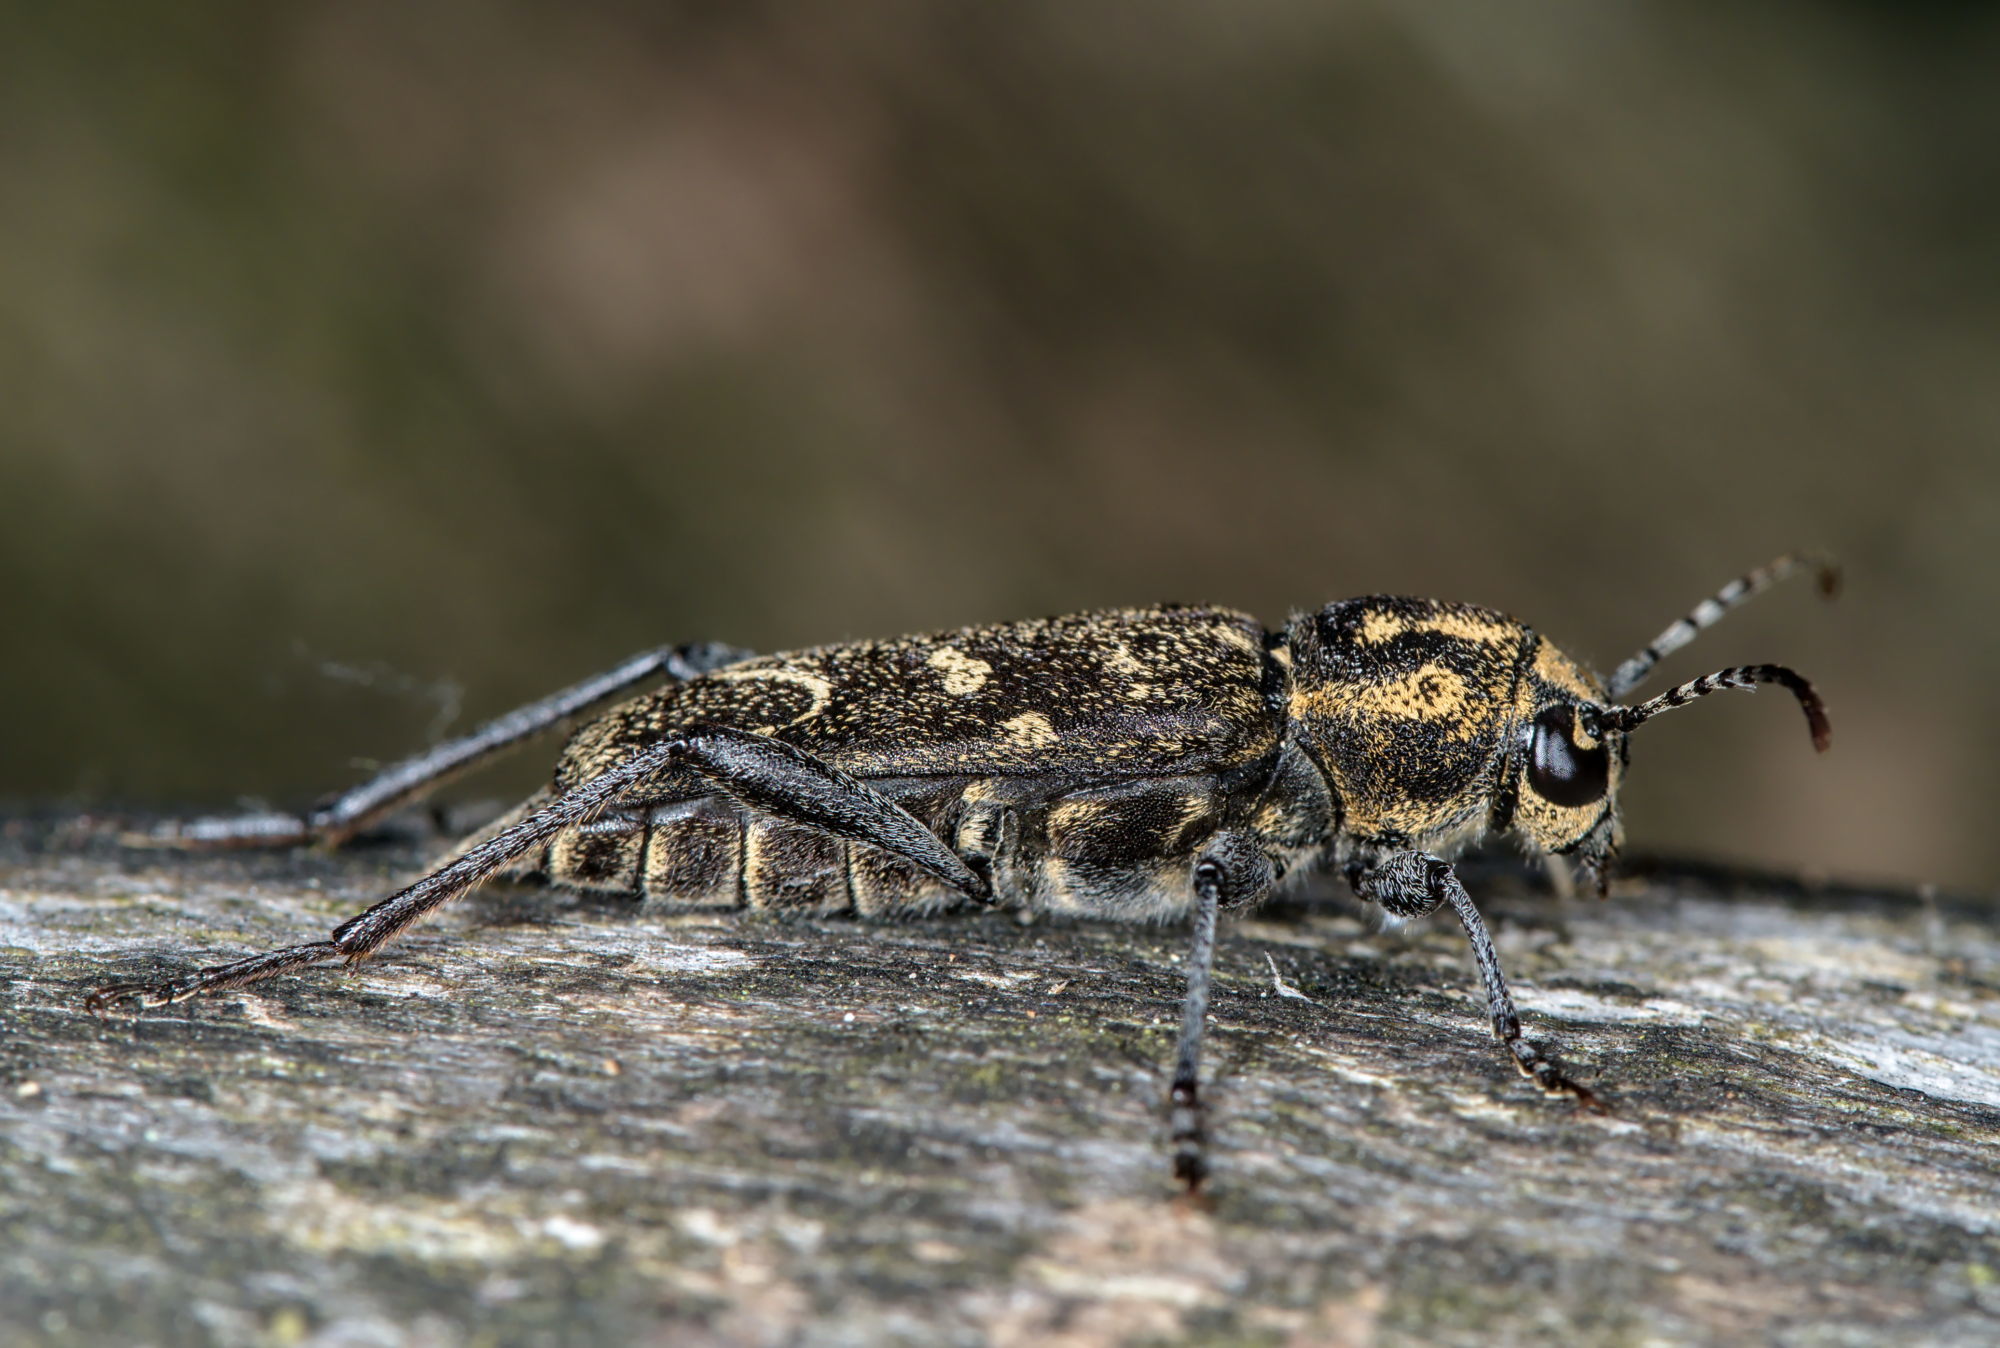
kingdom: Animalia
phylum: Arthropoda
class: Insecta
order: Coleoptera
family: Cerambycidae
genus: Xylotrechus
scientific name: Xylotrechus rusticus
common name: Grey tiger long-horned beetle
